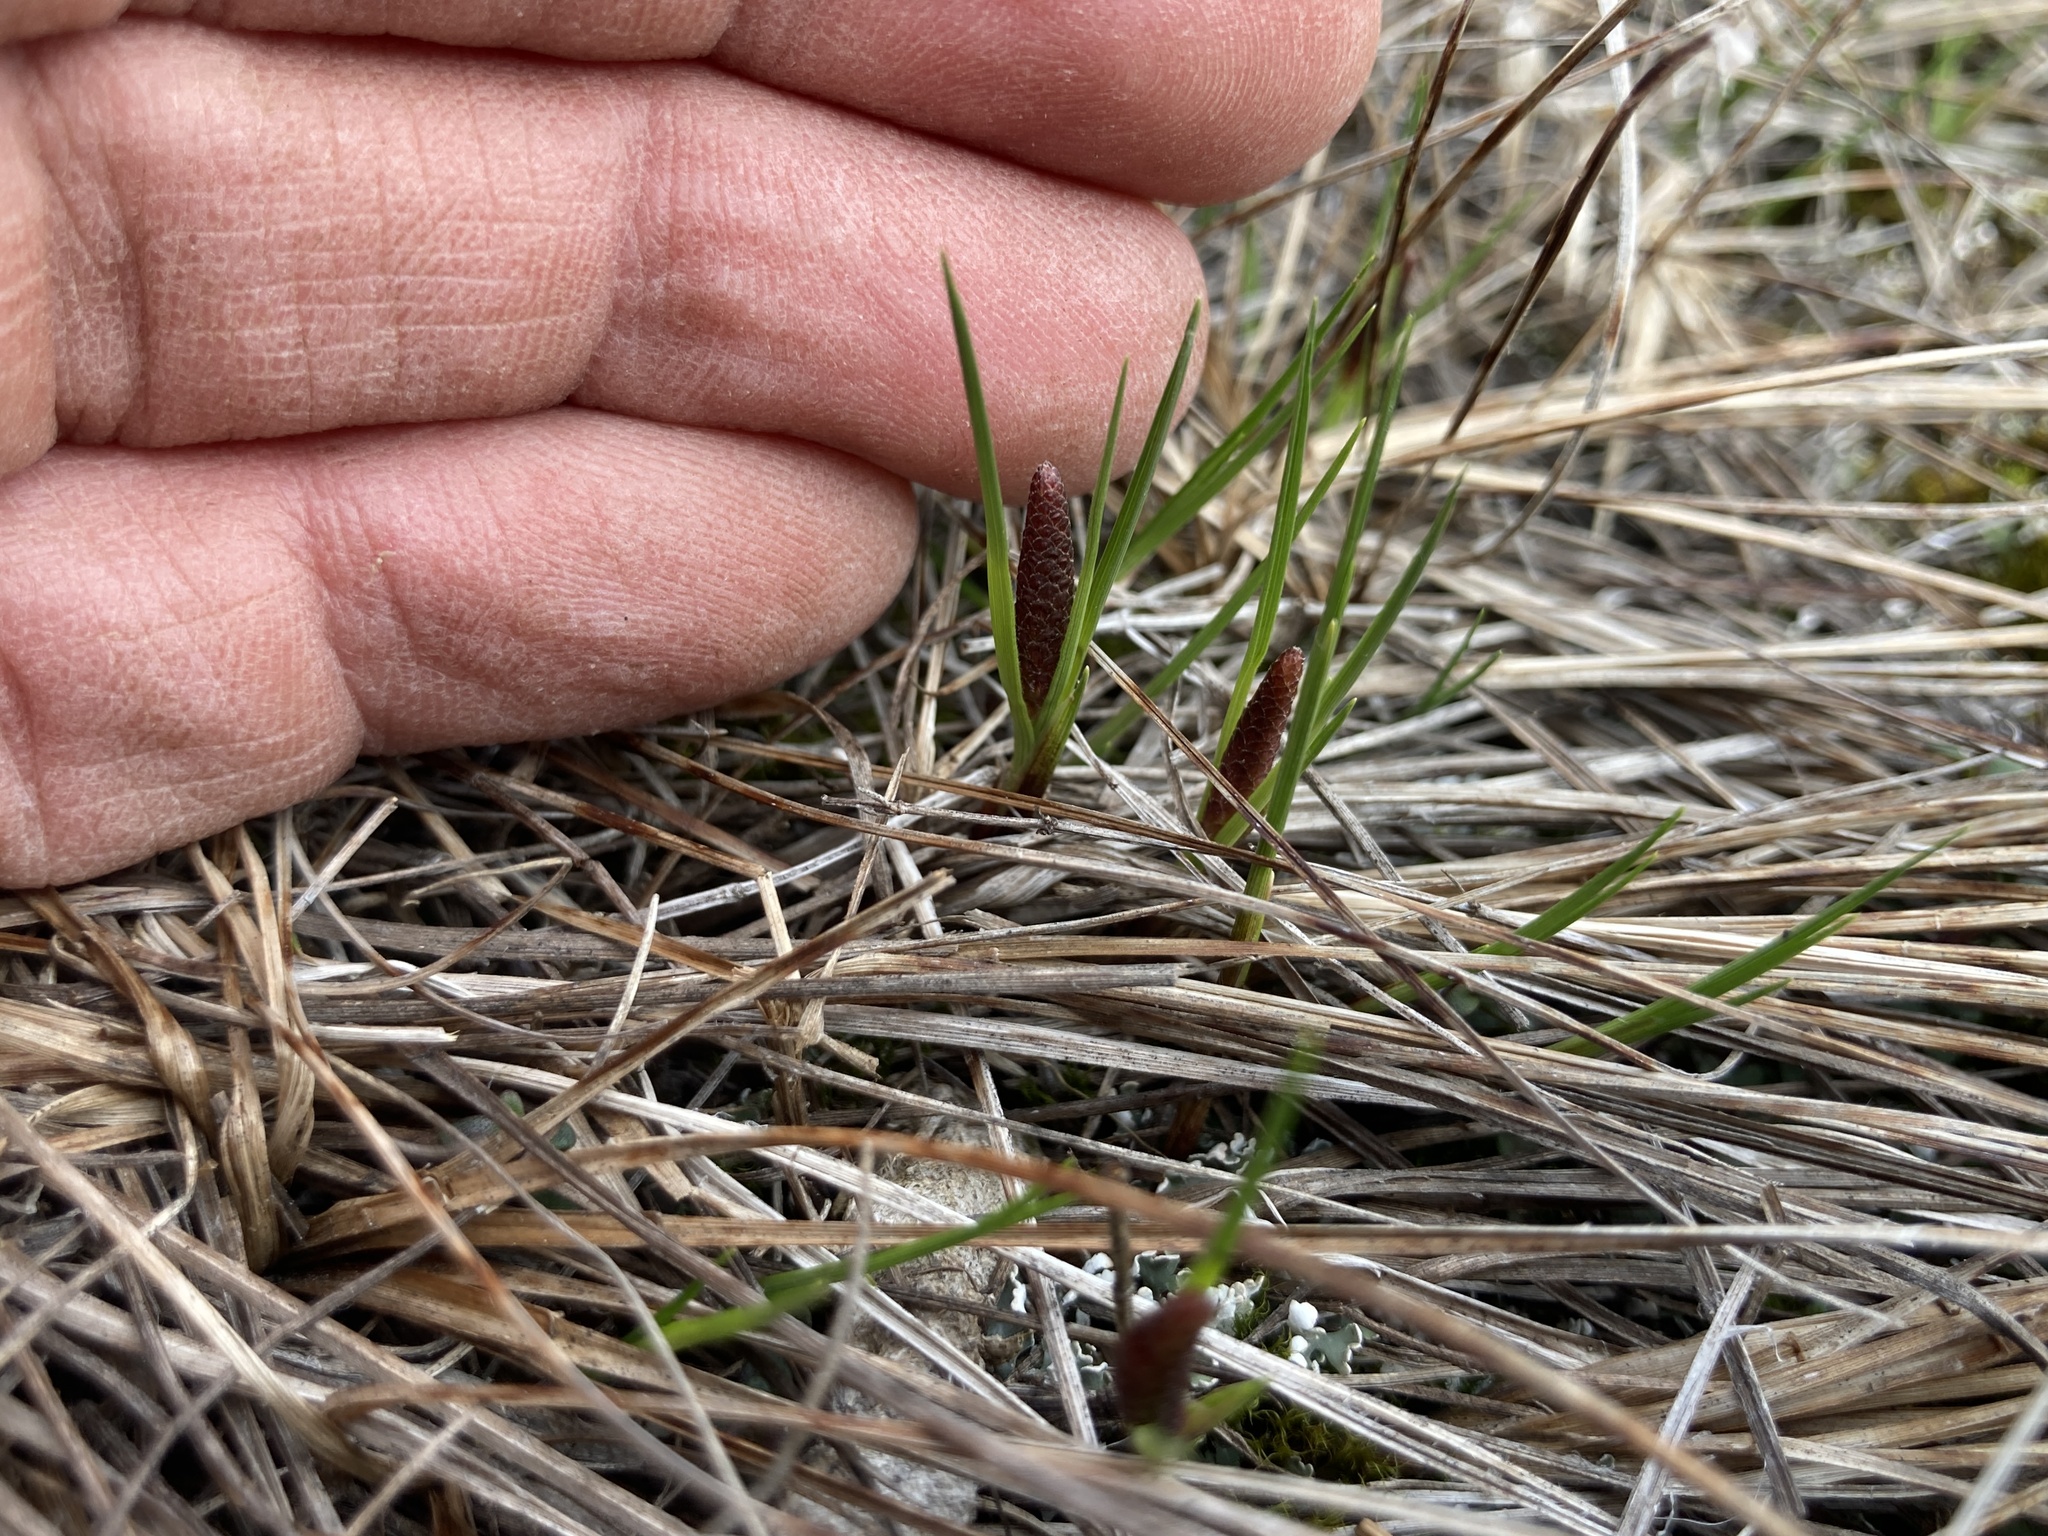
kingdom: Plantae
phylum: Tracheophyta
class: Liliopsida
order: Poales
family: Cyperaceae
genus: Carex
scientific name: Carex scirpoidea
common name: Canada single-spike sedge
